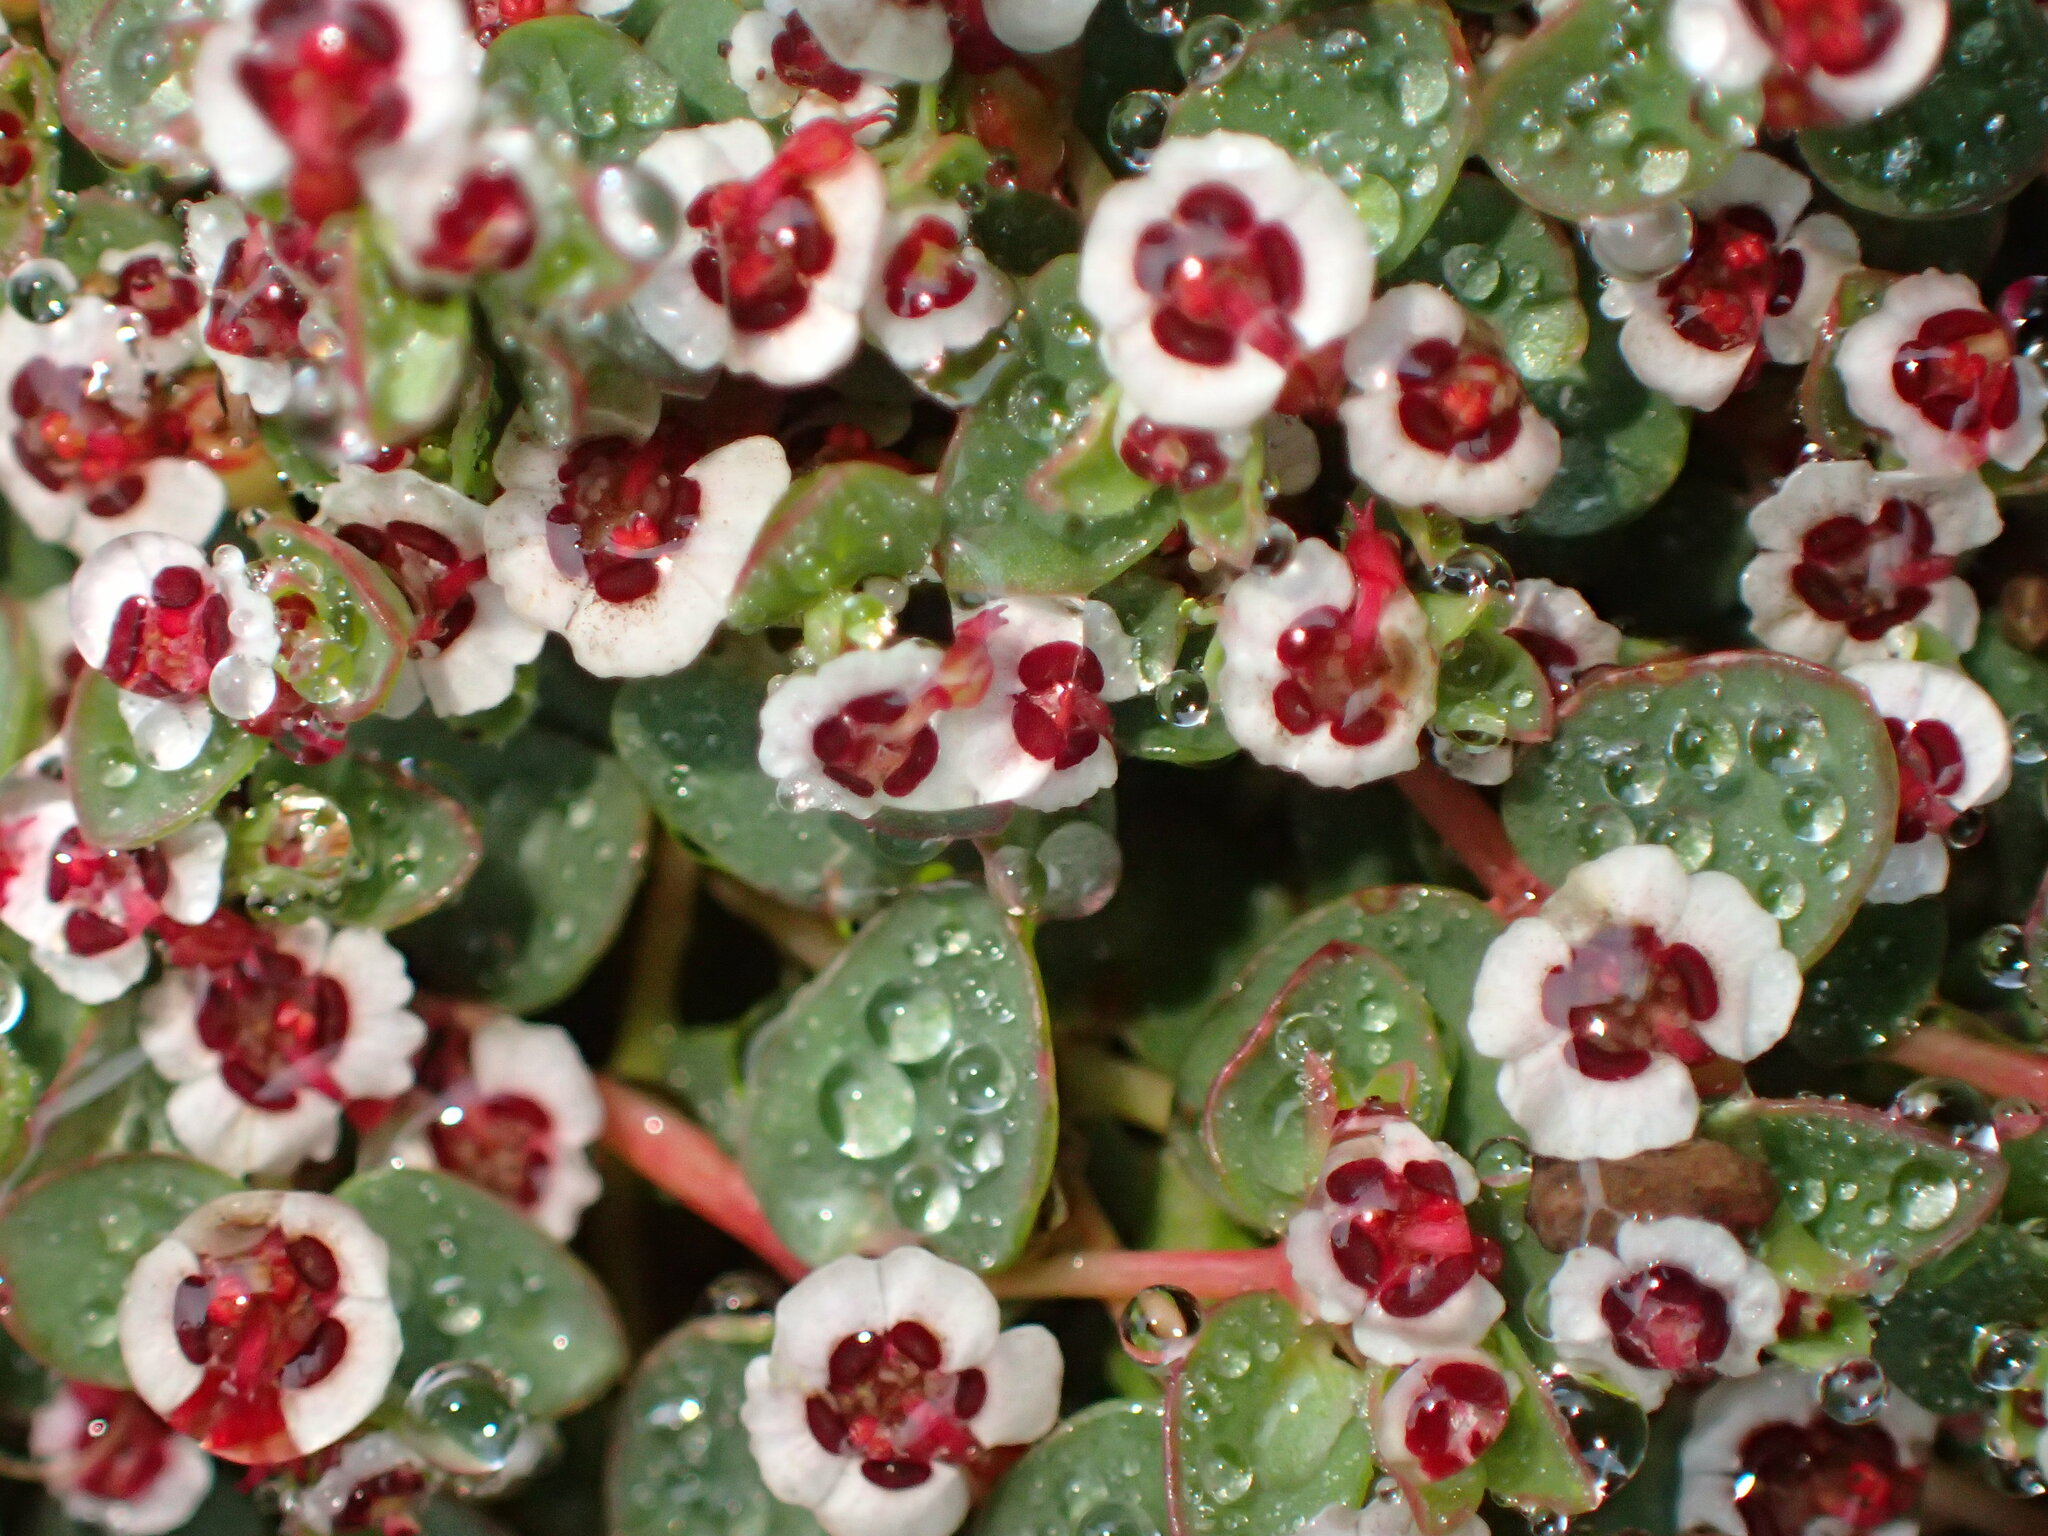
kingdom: Plantae
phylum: Tracheophyta
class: Magnoliopsida
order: Malpighiales
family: Euphorbiaceae
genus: Euphorbia
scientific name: Euphorbia polycarpa
